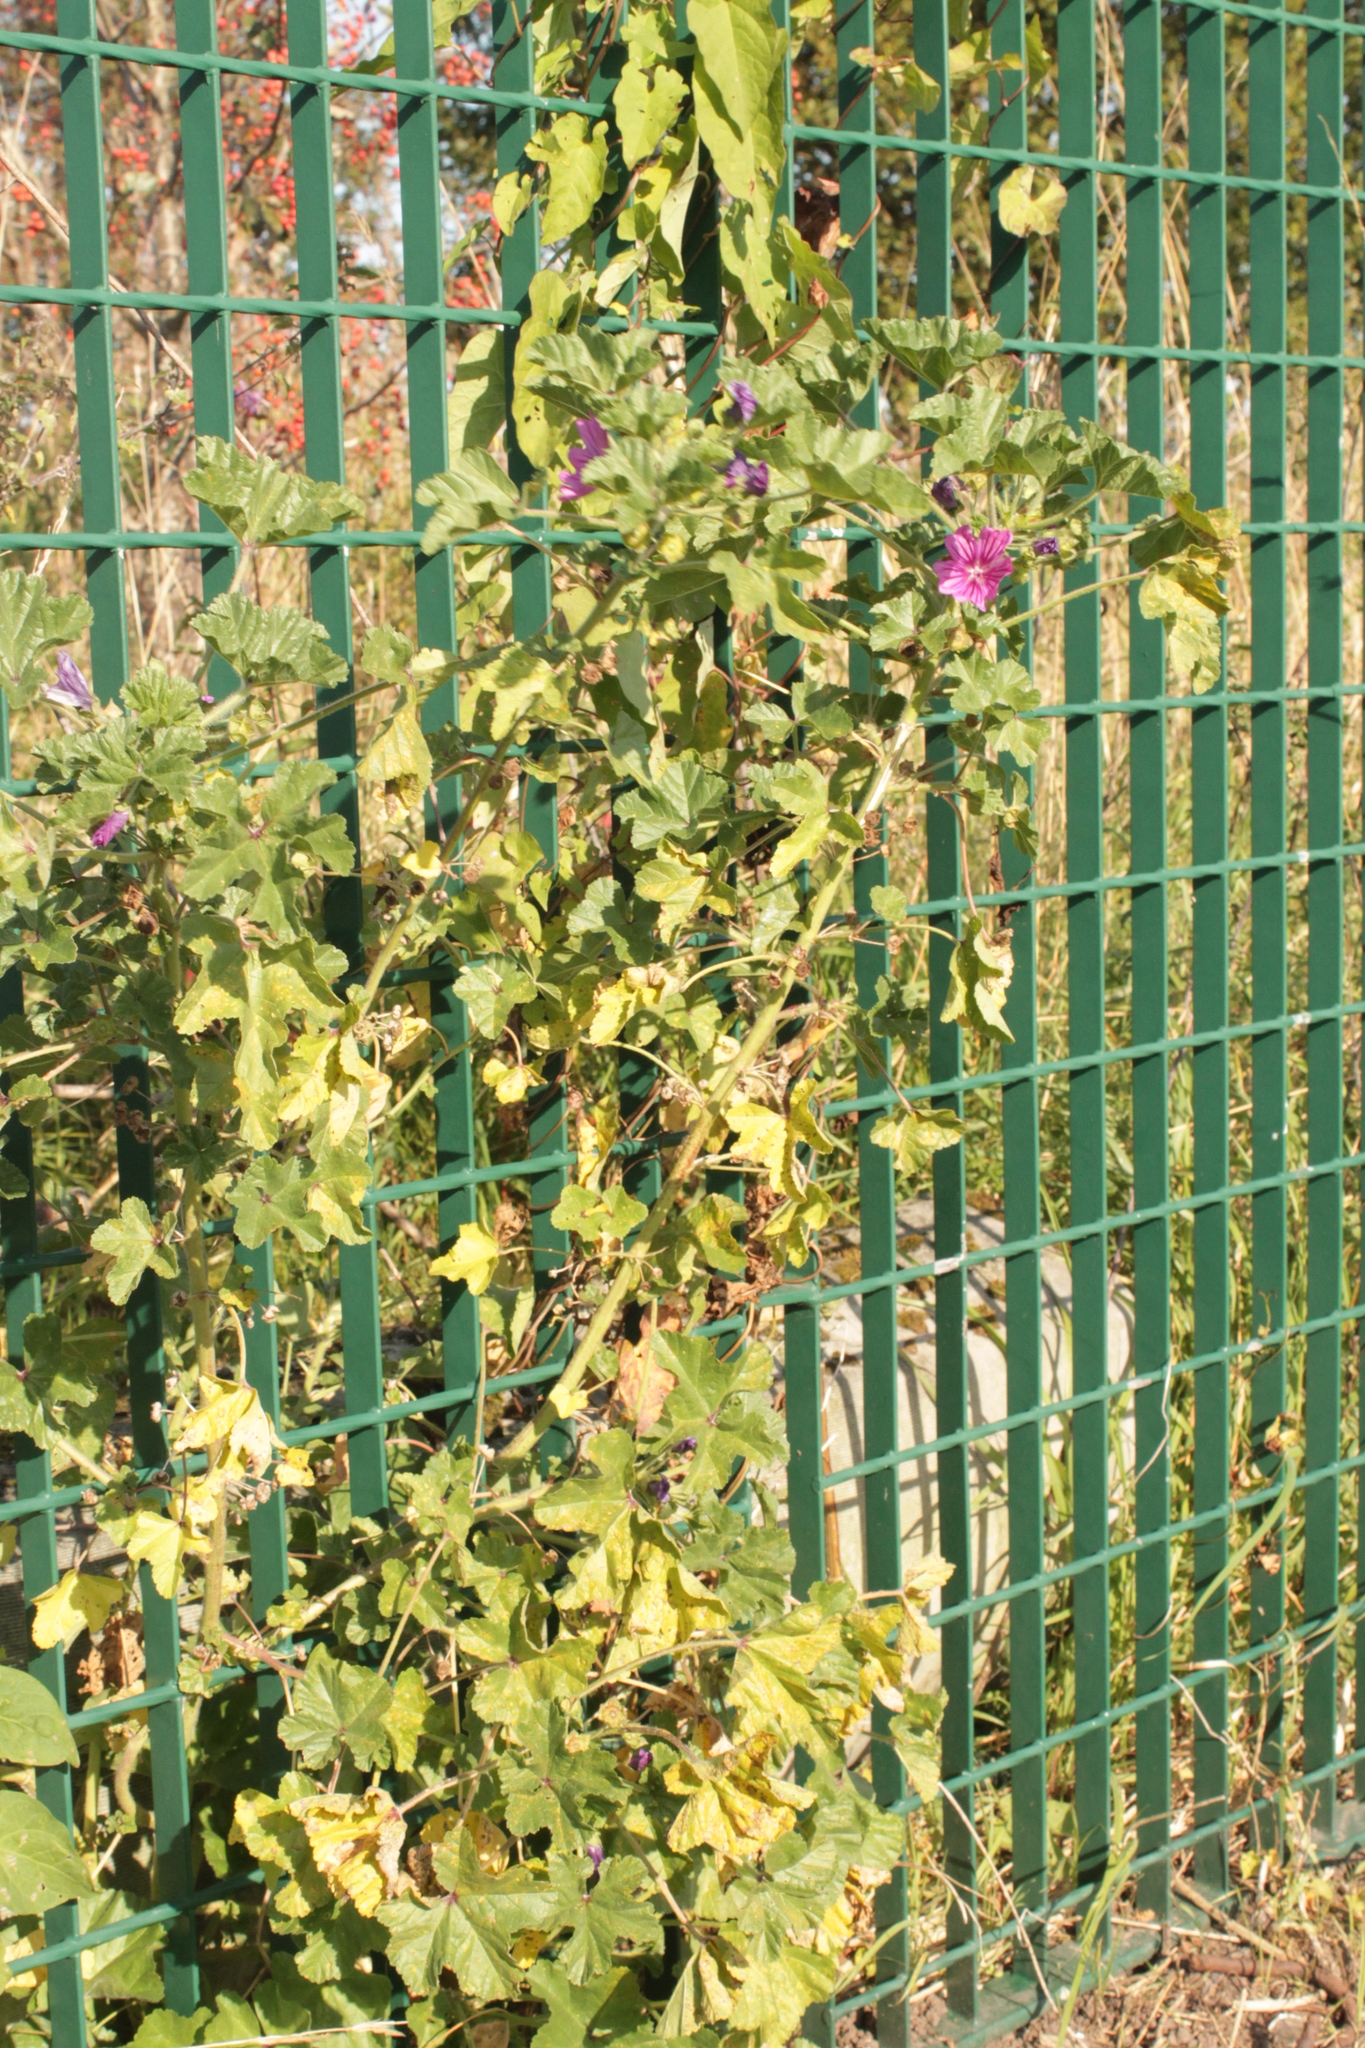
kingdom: Plantae
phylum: Tracheophyta
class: Magnoliopsida
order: Malvales
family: Malvaceae
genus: Malva
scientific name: Malva sylvestris
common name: Common mallow
